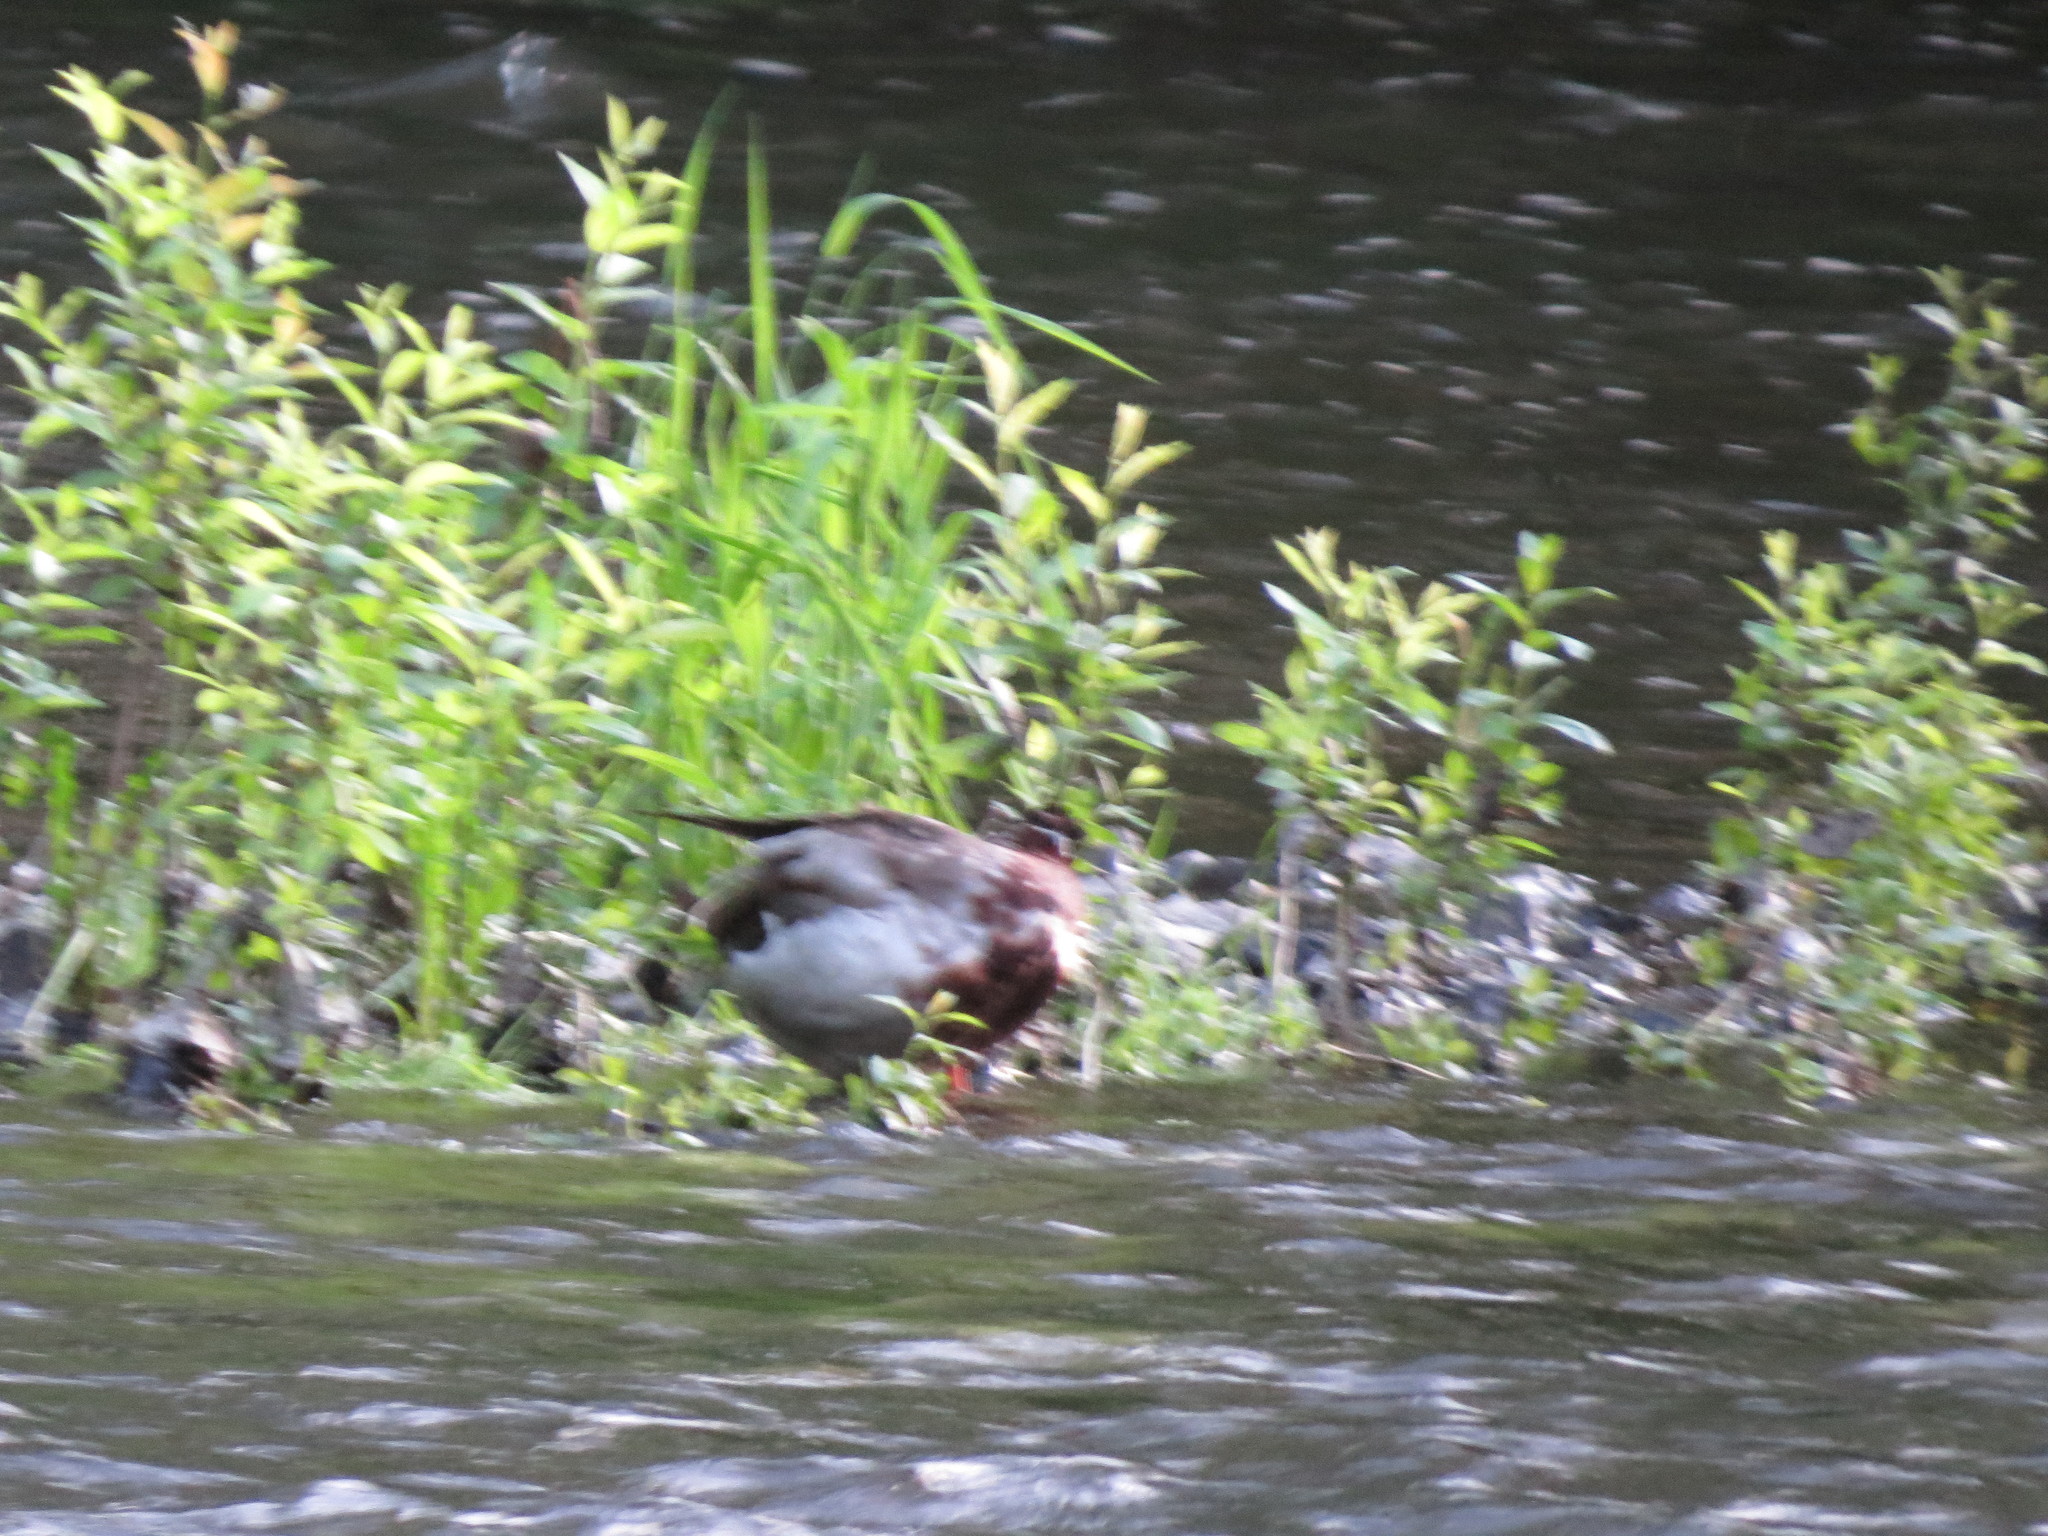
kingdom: Animalia
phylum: Chordata
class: Aves
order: Anseriformes
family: Anatidae
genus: Anas
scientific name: Anas platyrhynchos
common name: Mallard
